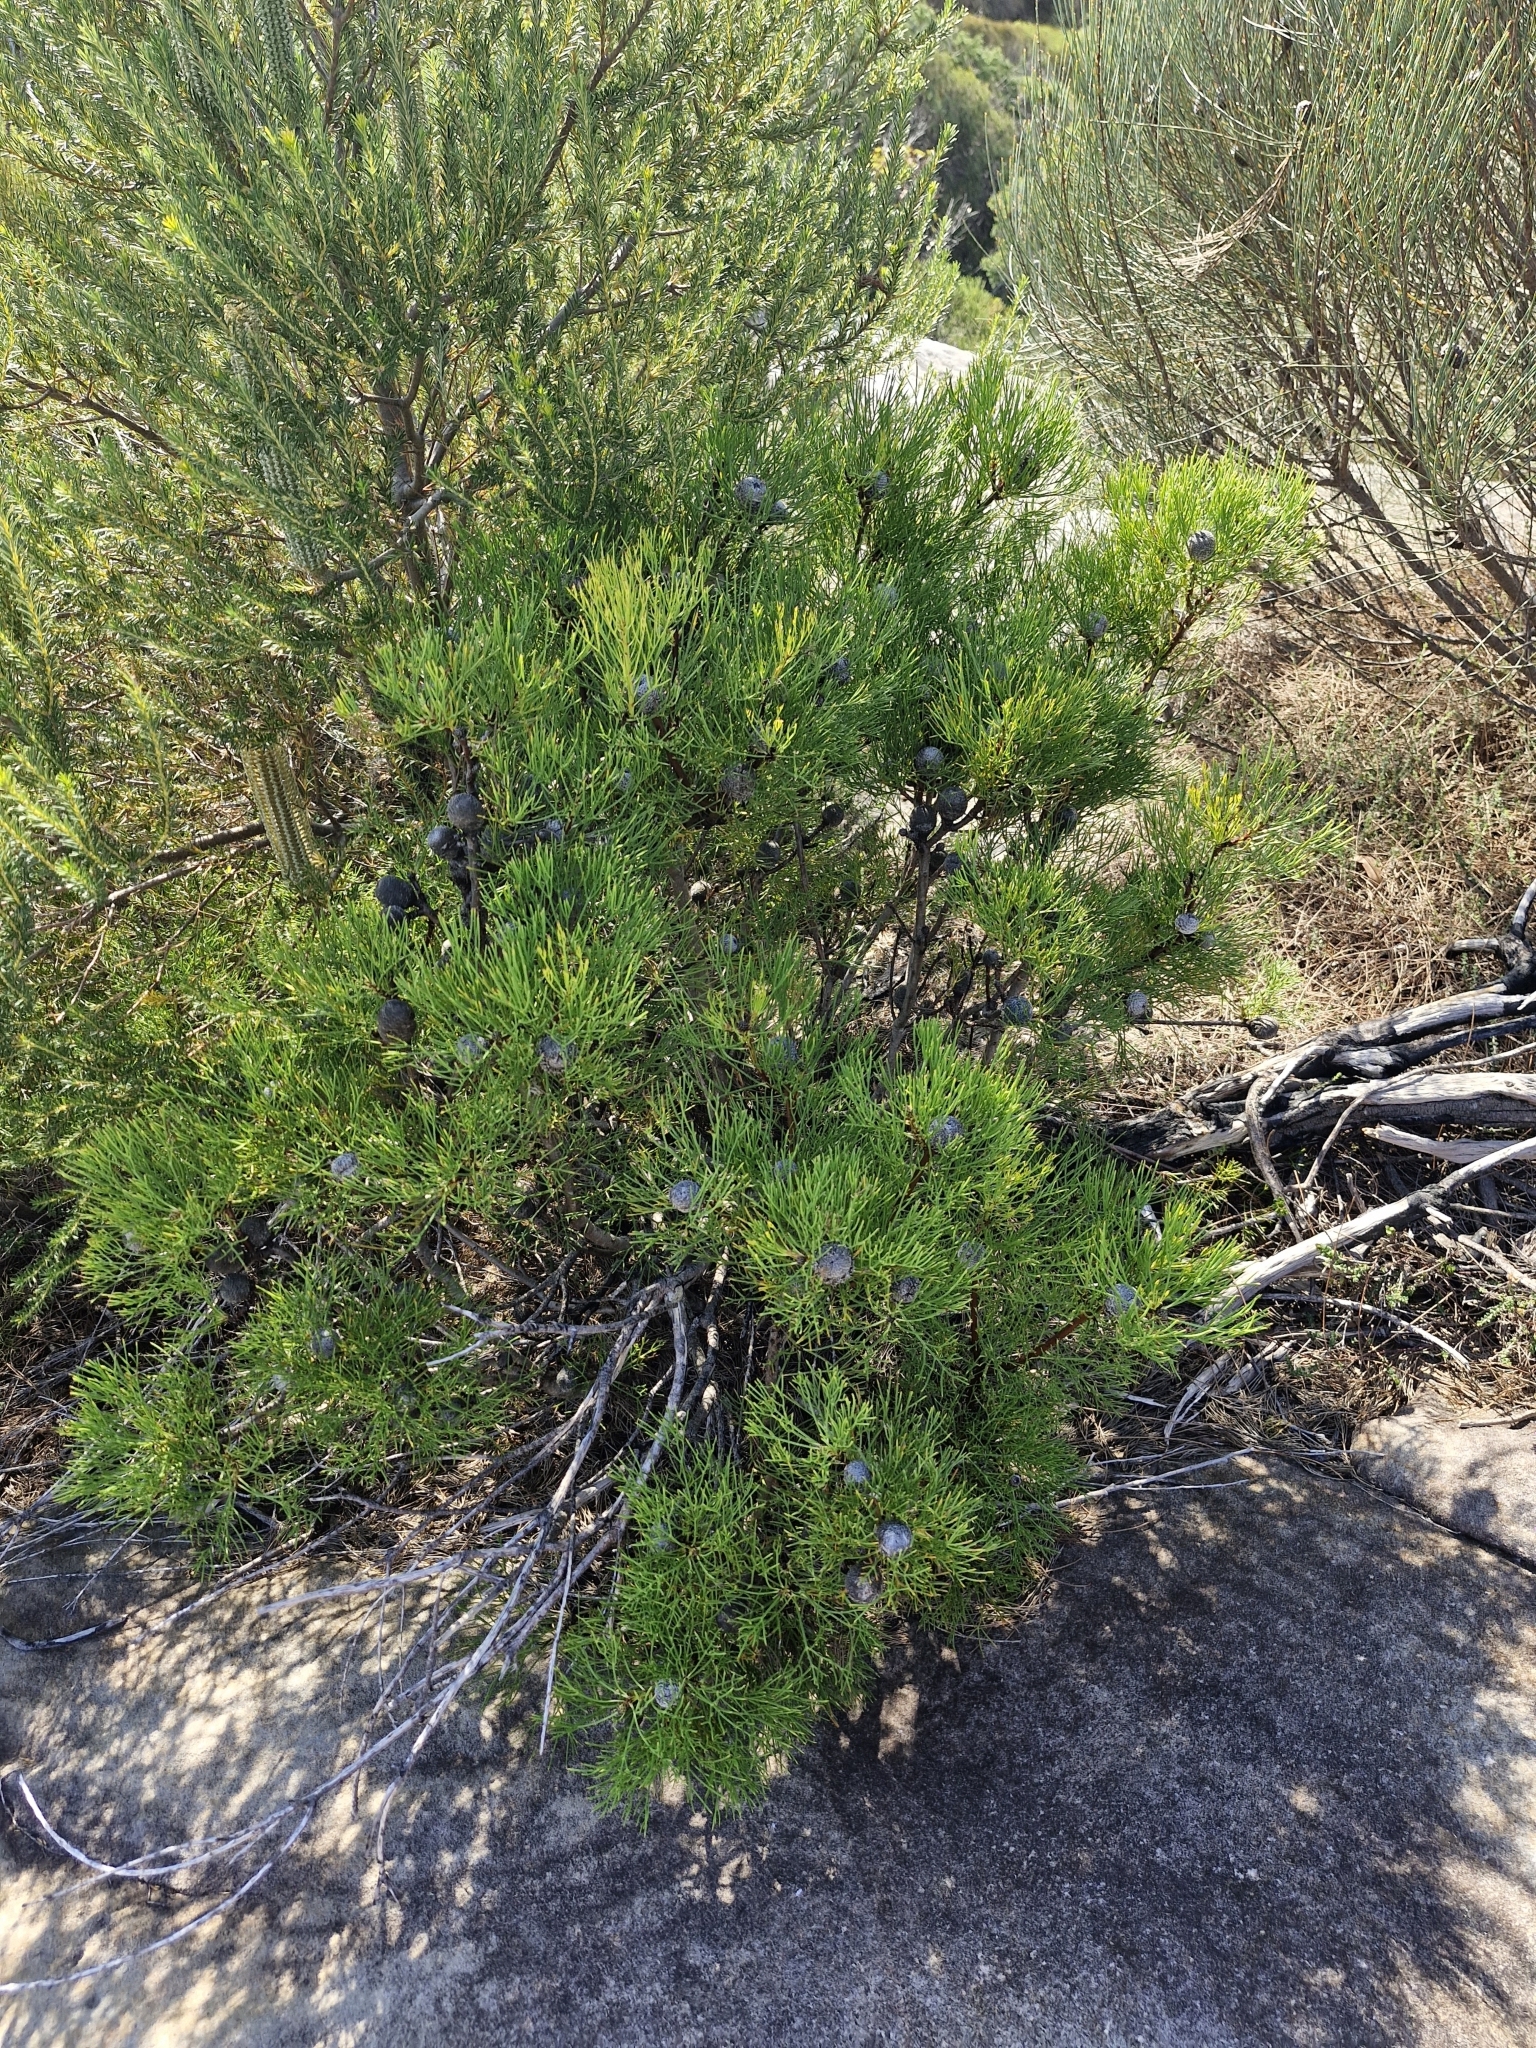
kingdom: Plantae
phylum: Tracheophyta
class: Magnoliopsida
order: Proteales
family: Proteaceae
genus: Isopogon
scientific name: Isopogon anethifolius
